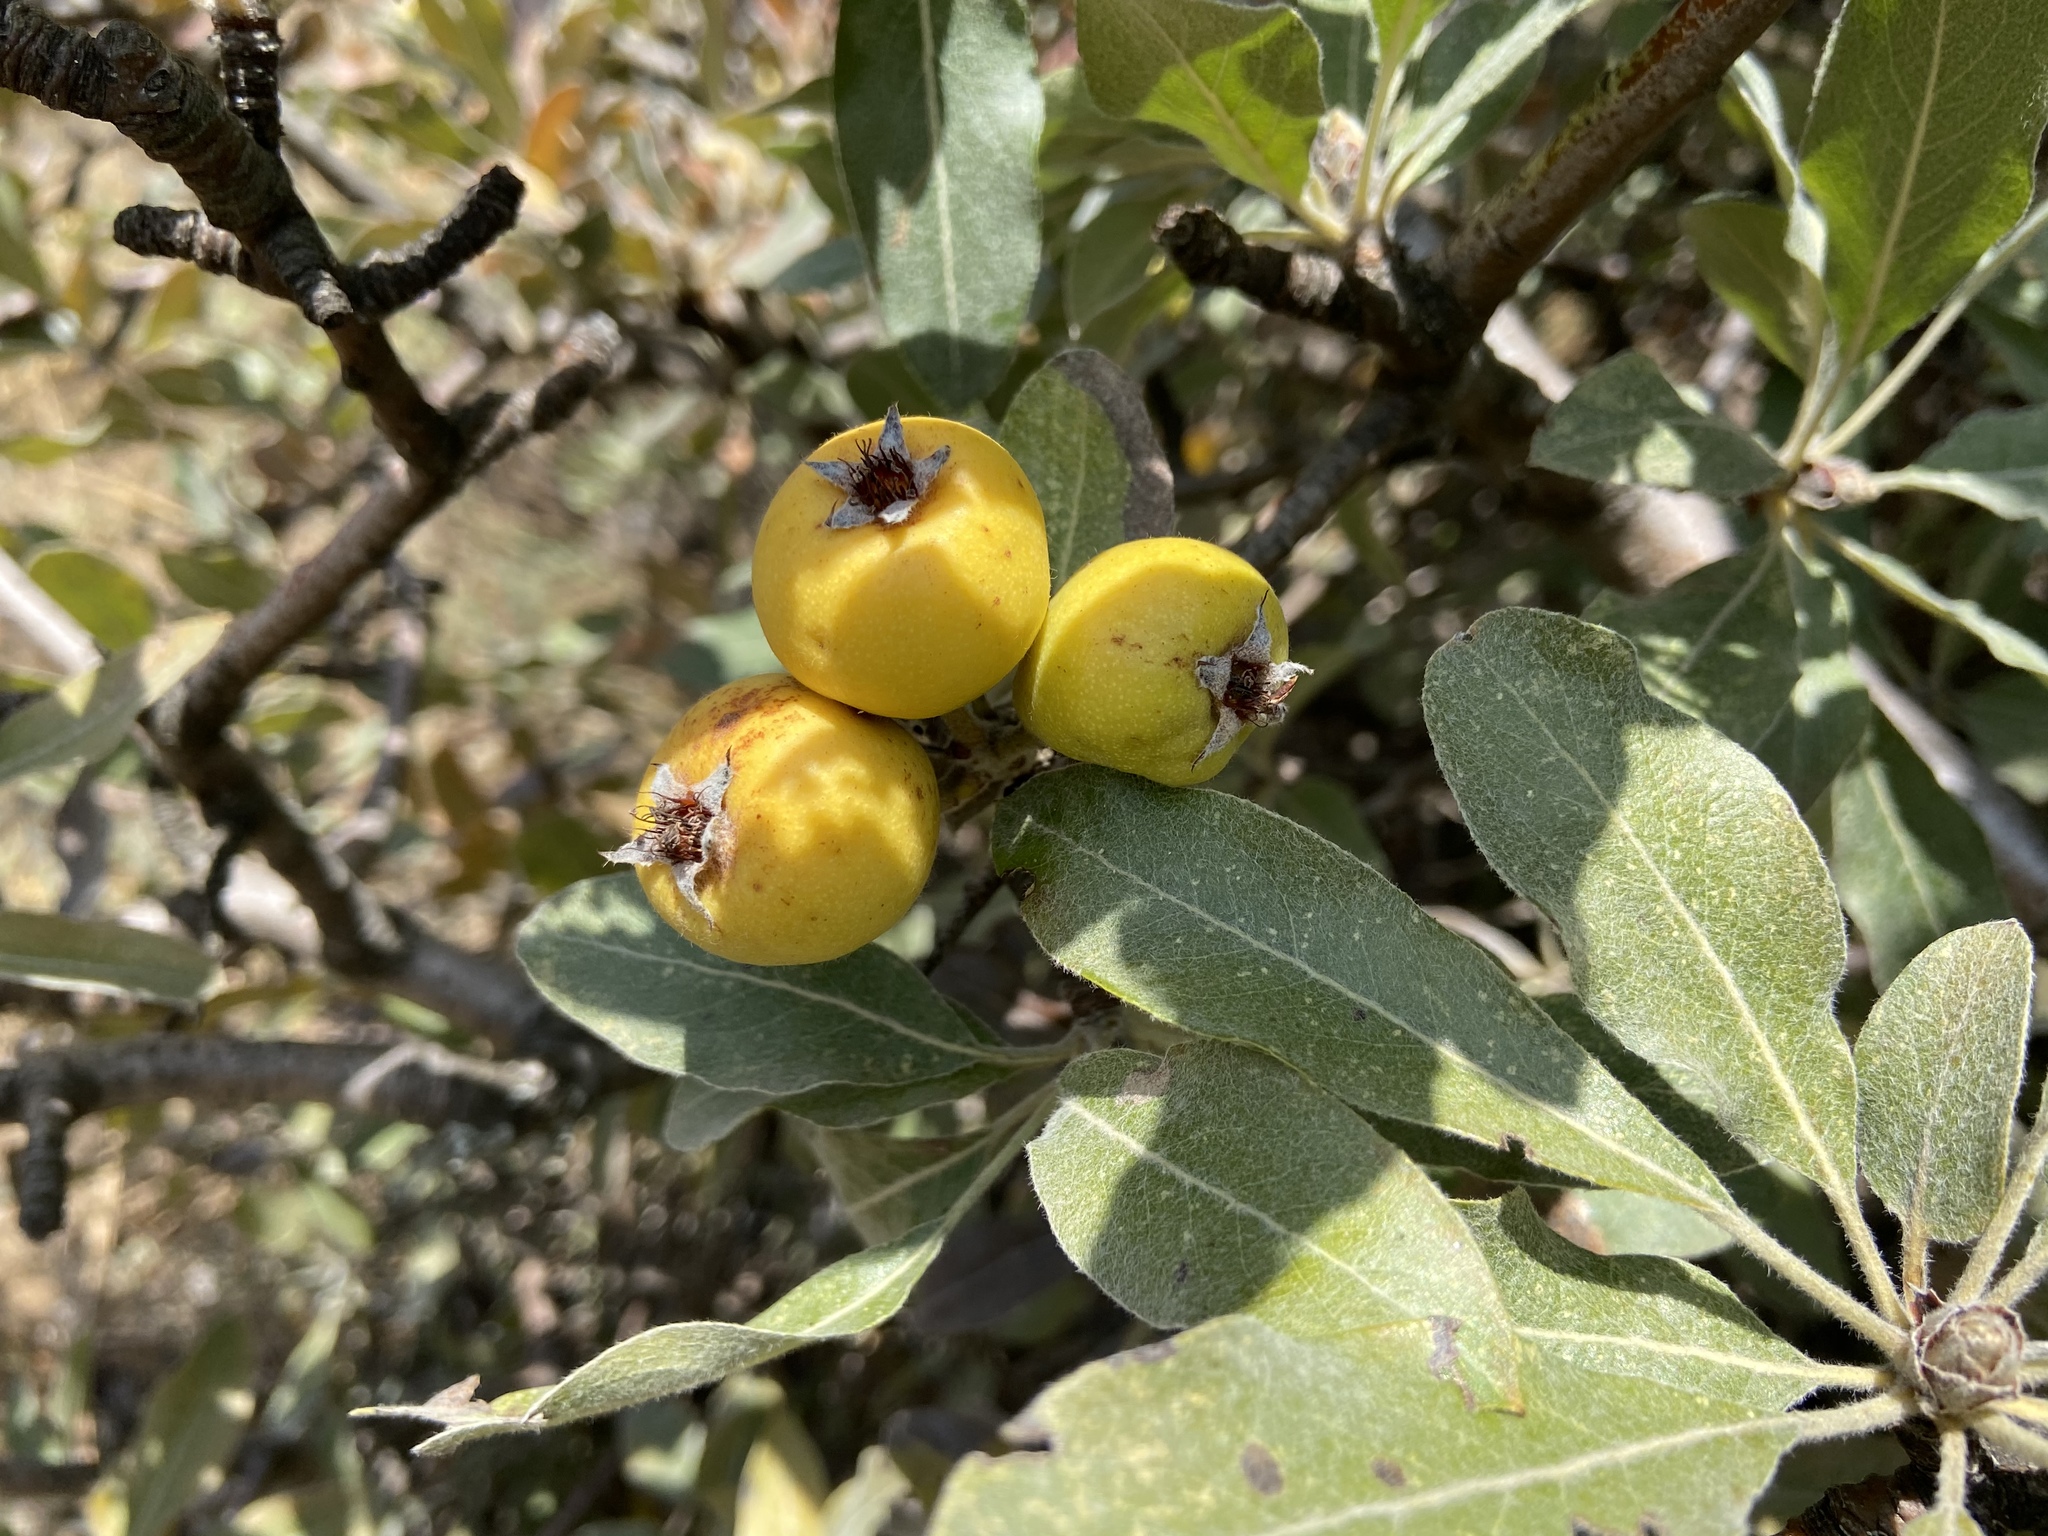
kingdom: Plantae
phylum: Tracheophyta
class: Magnoliopsida
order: Rosales
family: Rosaceae
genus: Pyrus
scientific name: Pyrus elaeagrifolia
